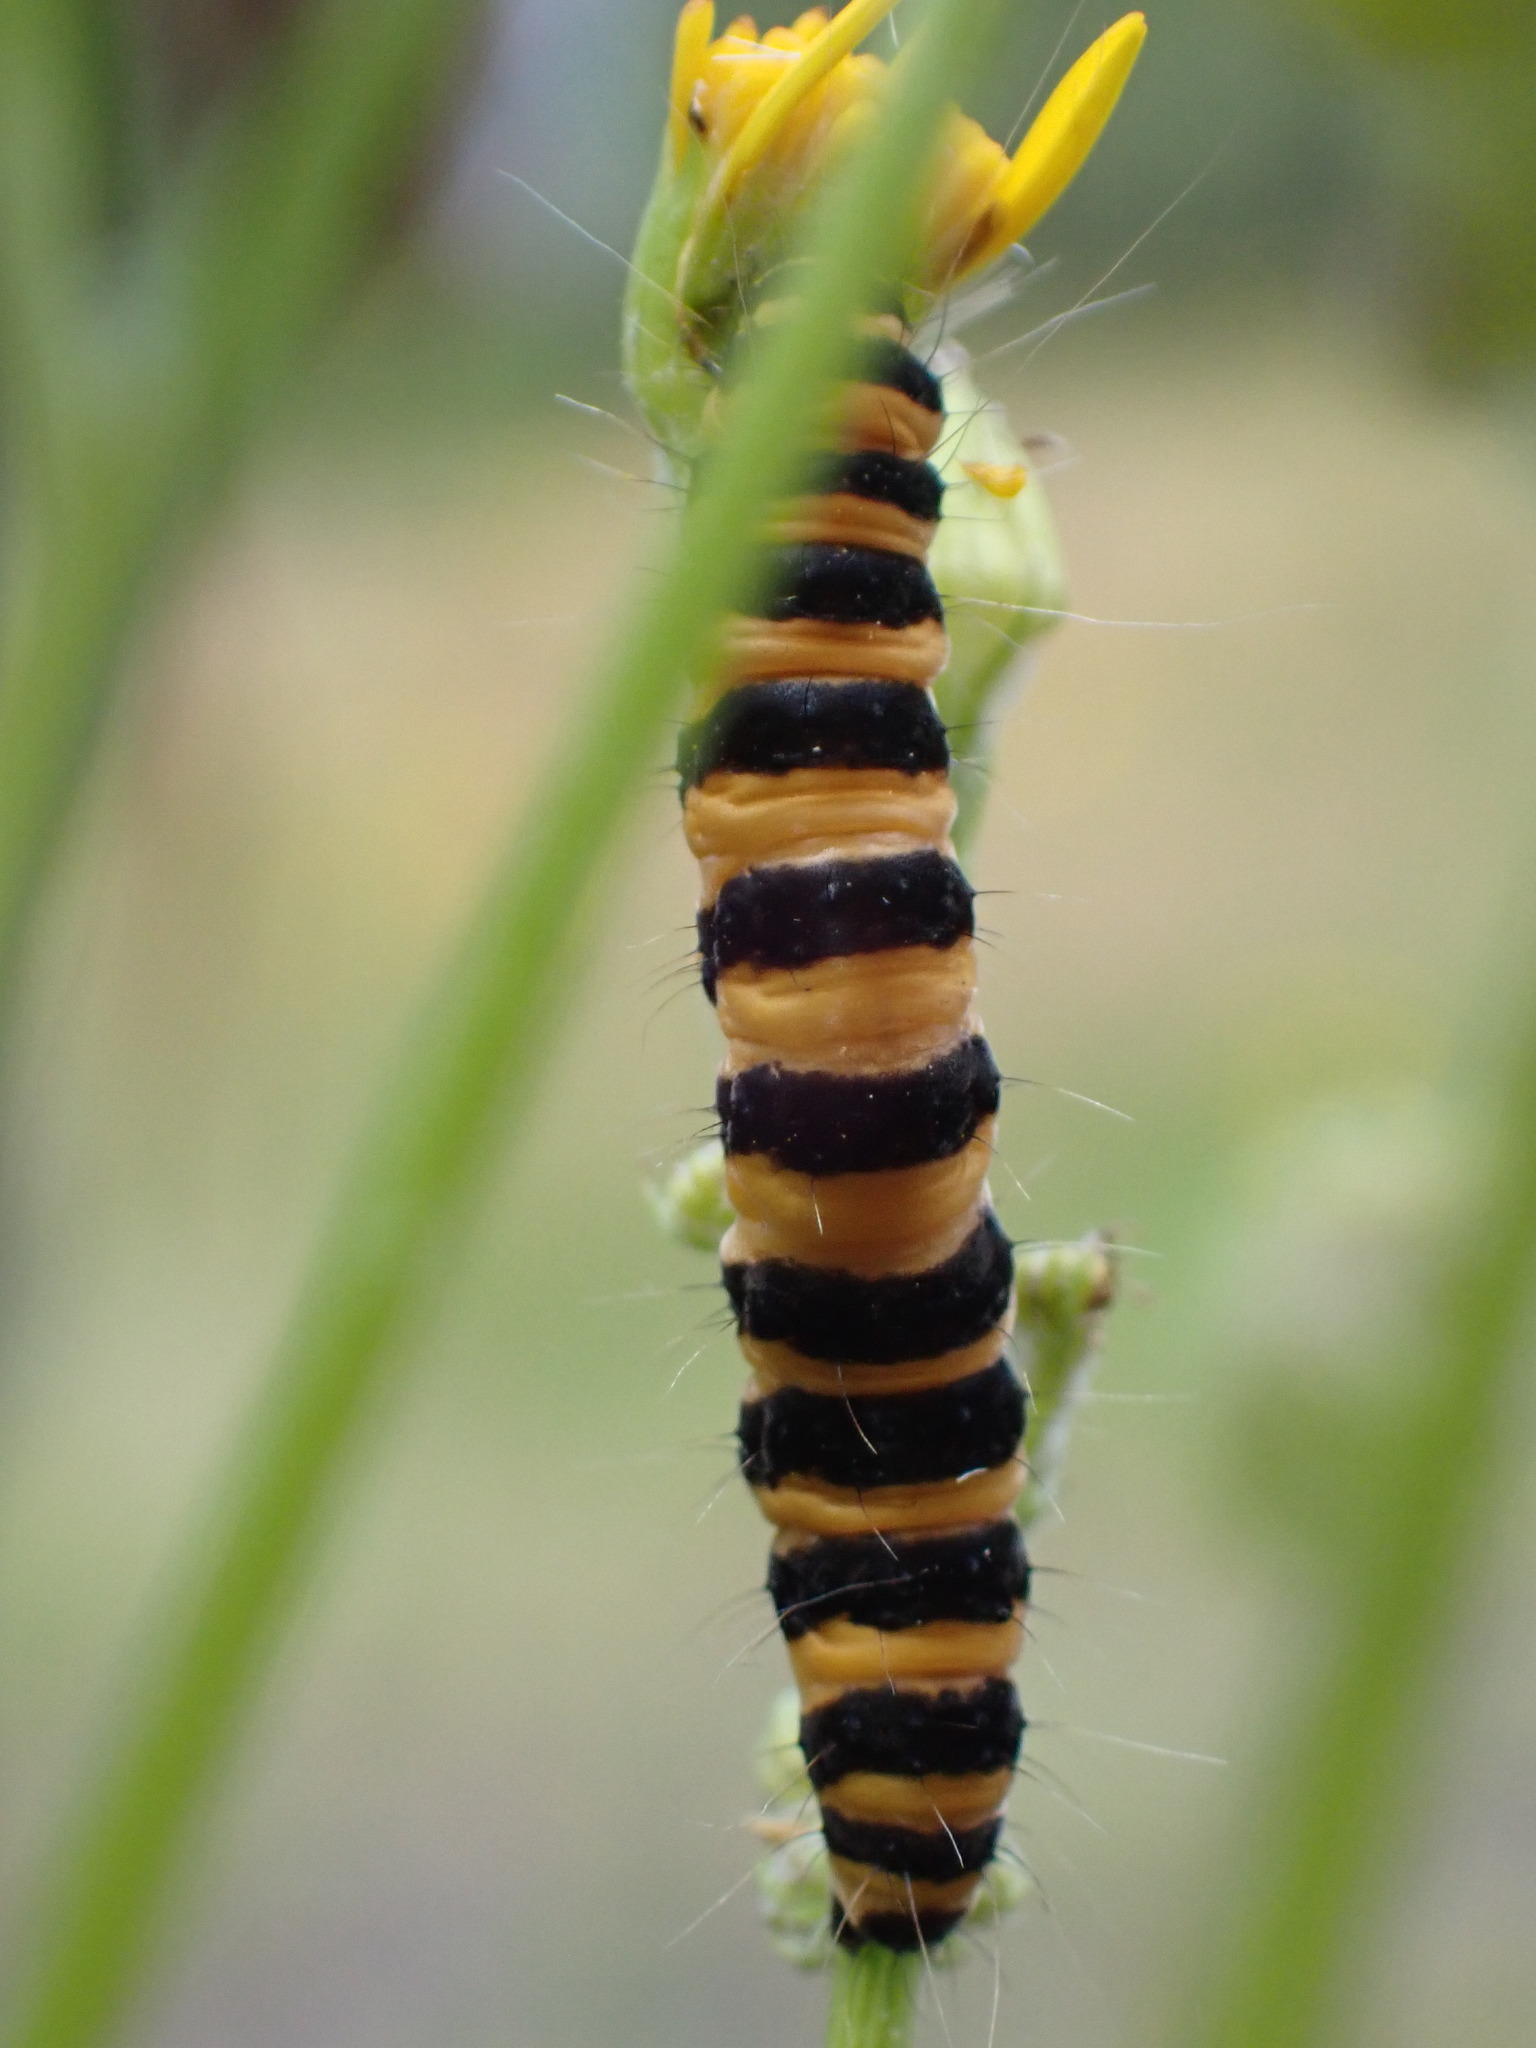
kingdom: Animalia
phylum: Arthropoda
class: Insecta
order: Lepidoptera
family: Erebidae
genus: Tyria
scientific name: Tyria jacobaeae
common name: Cinnabar
